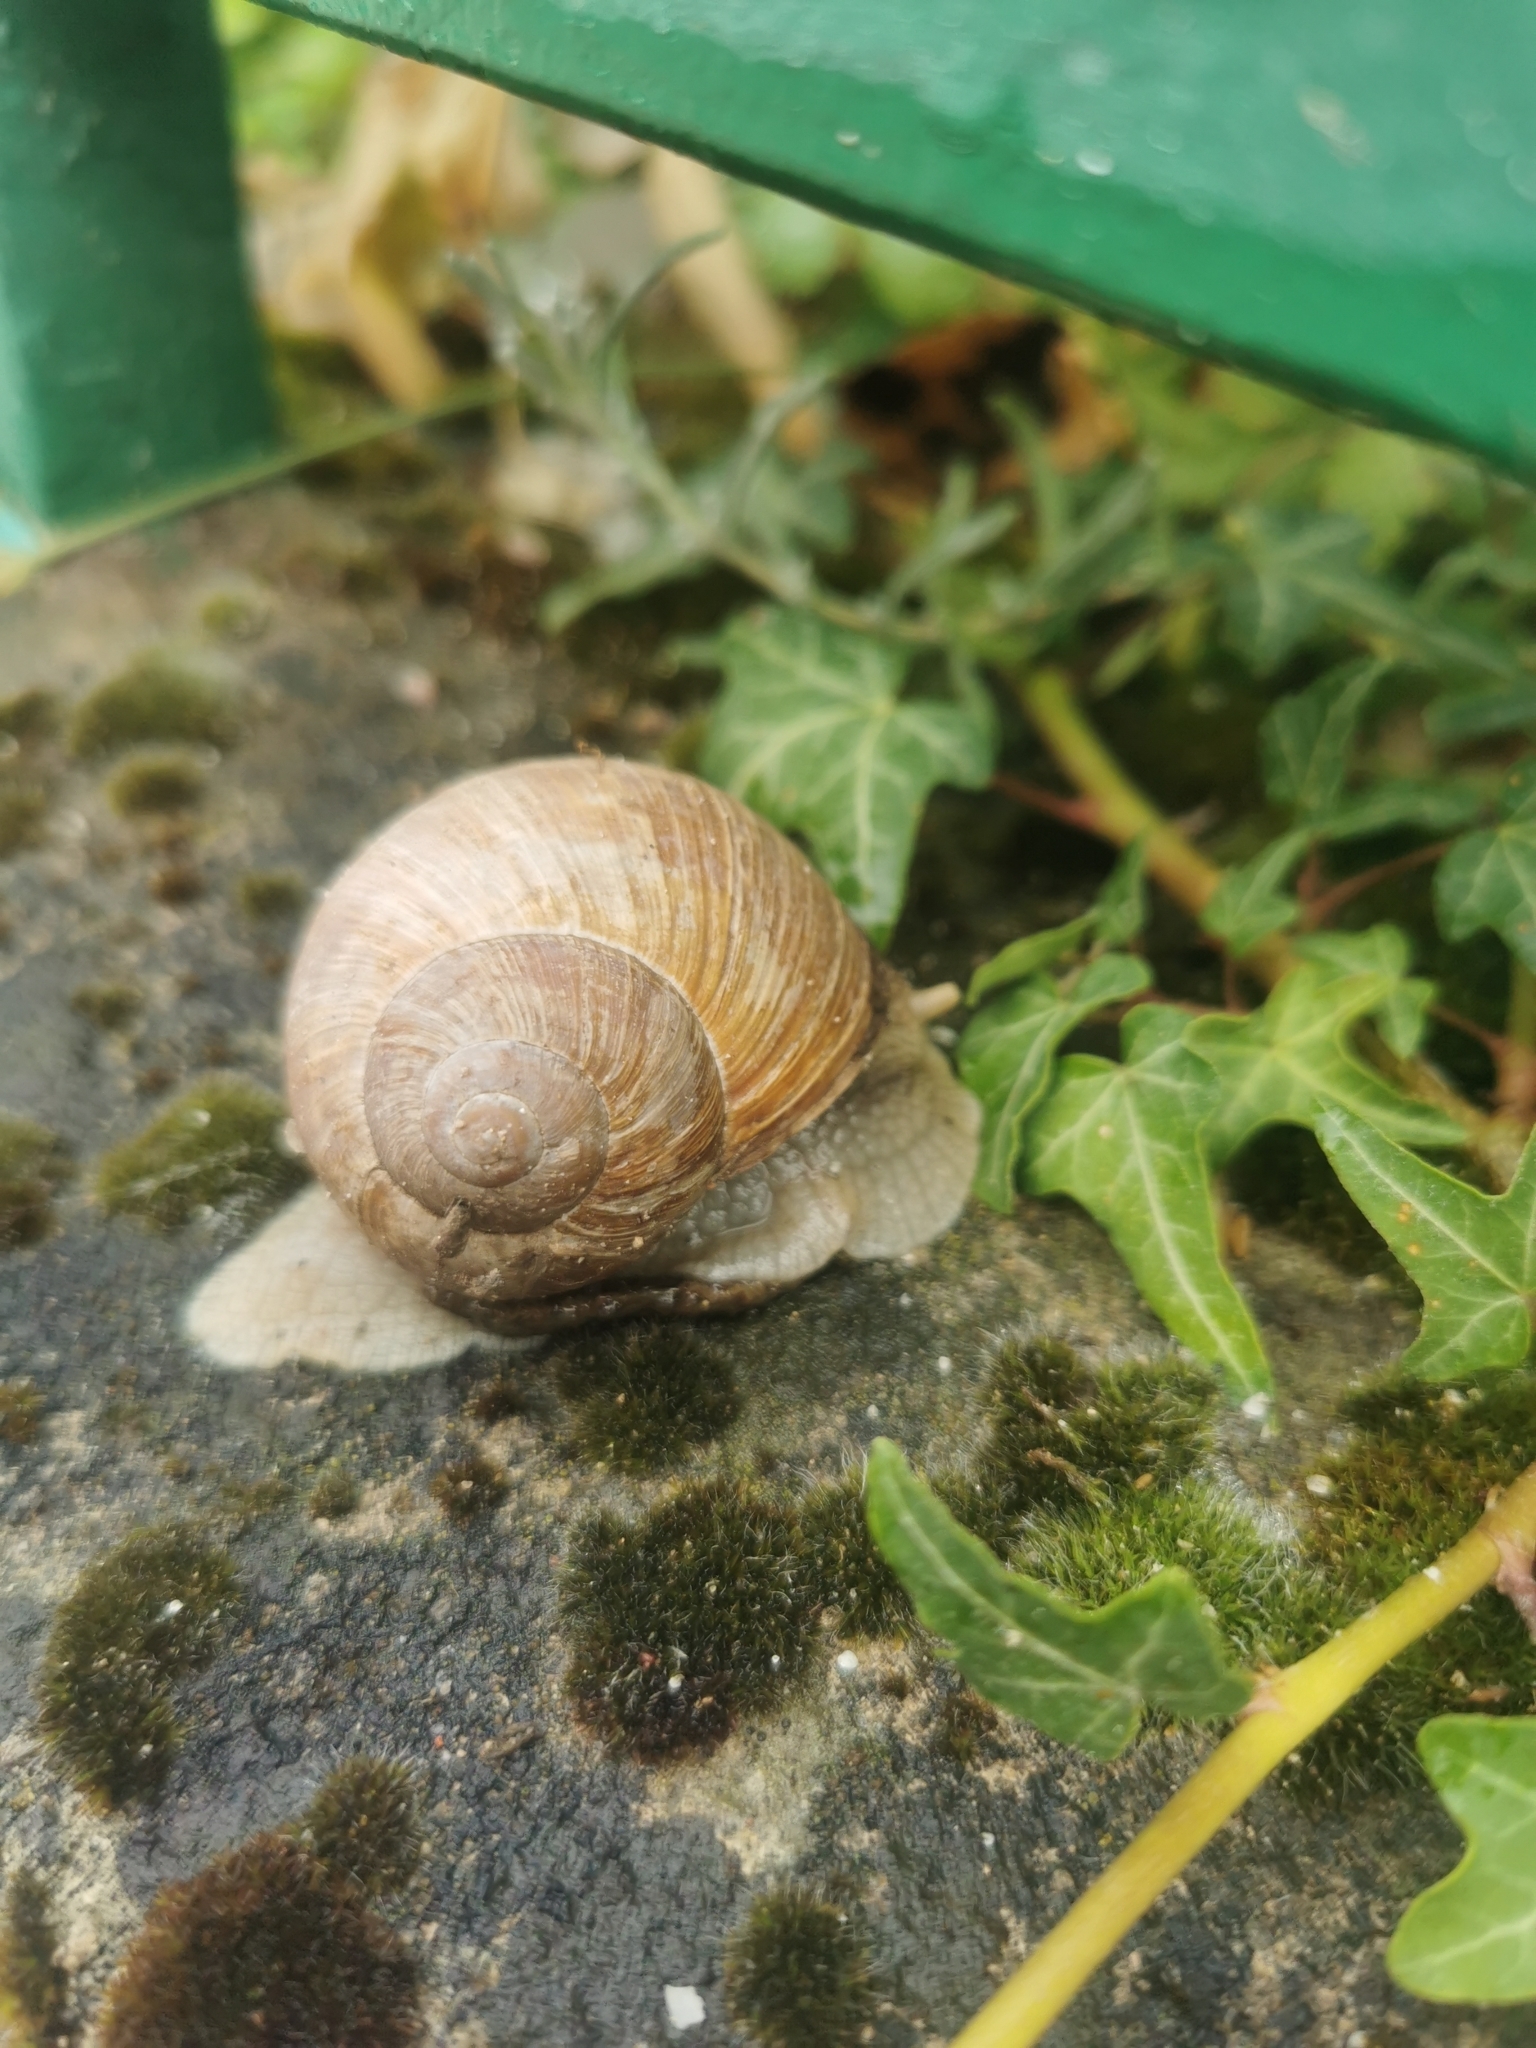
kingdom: Animalia
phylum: Mollusca
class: Gastropoda
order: Stylommatophora
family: Helicidae
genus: Helix
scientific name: Helix pomatia
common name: Roman snail
